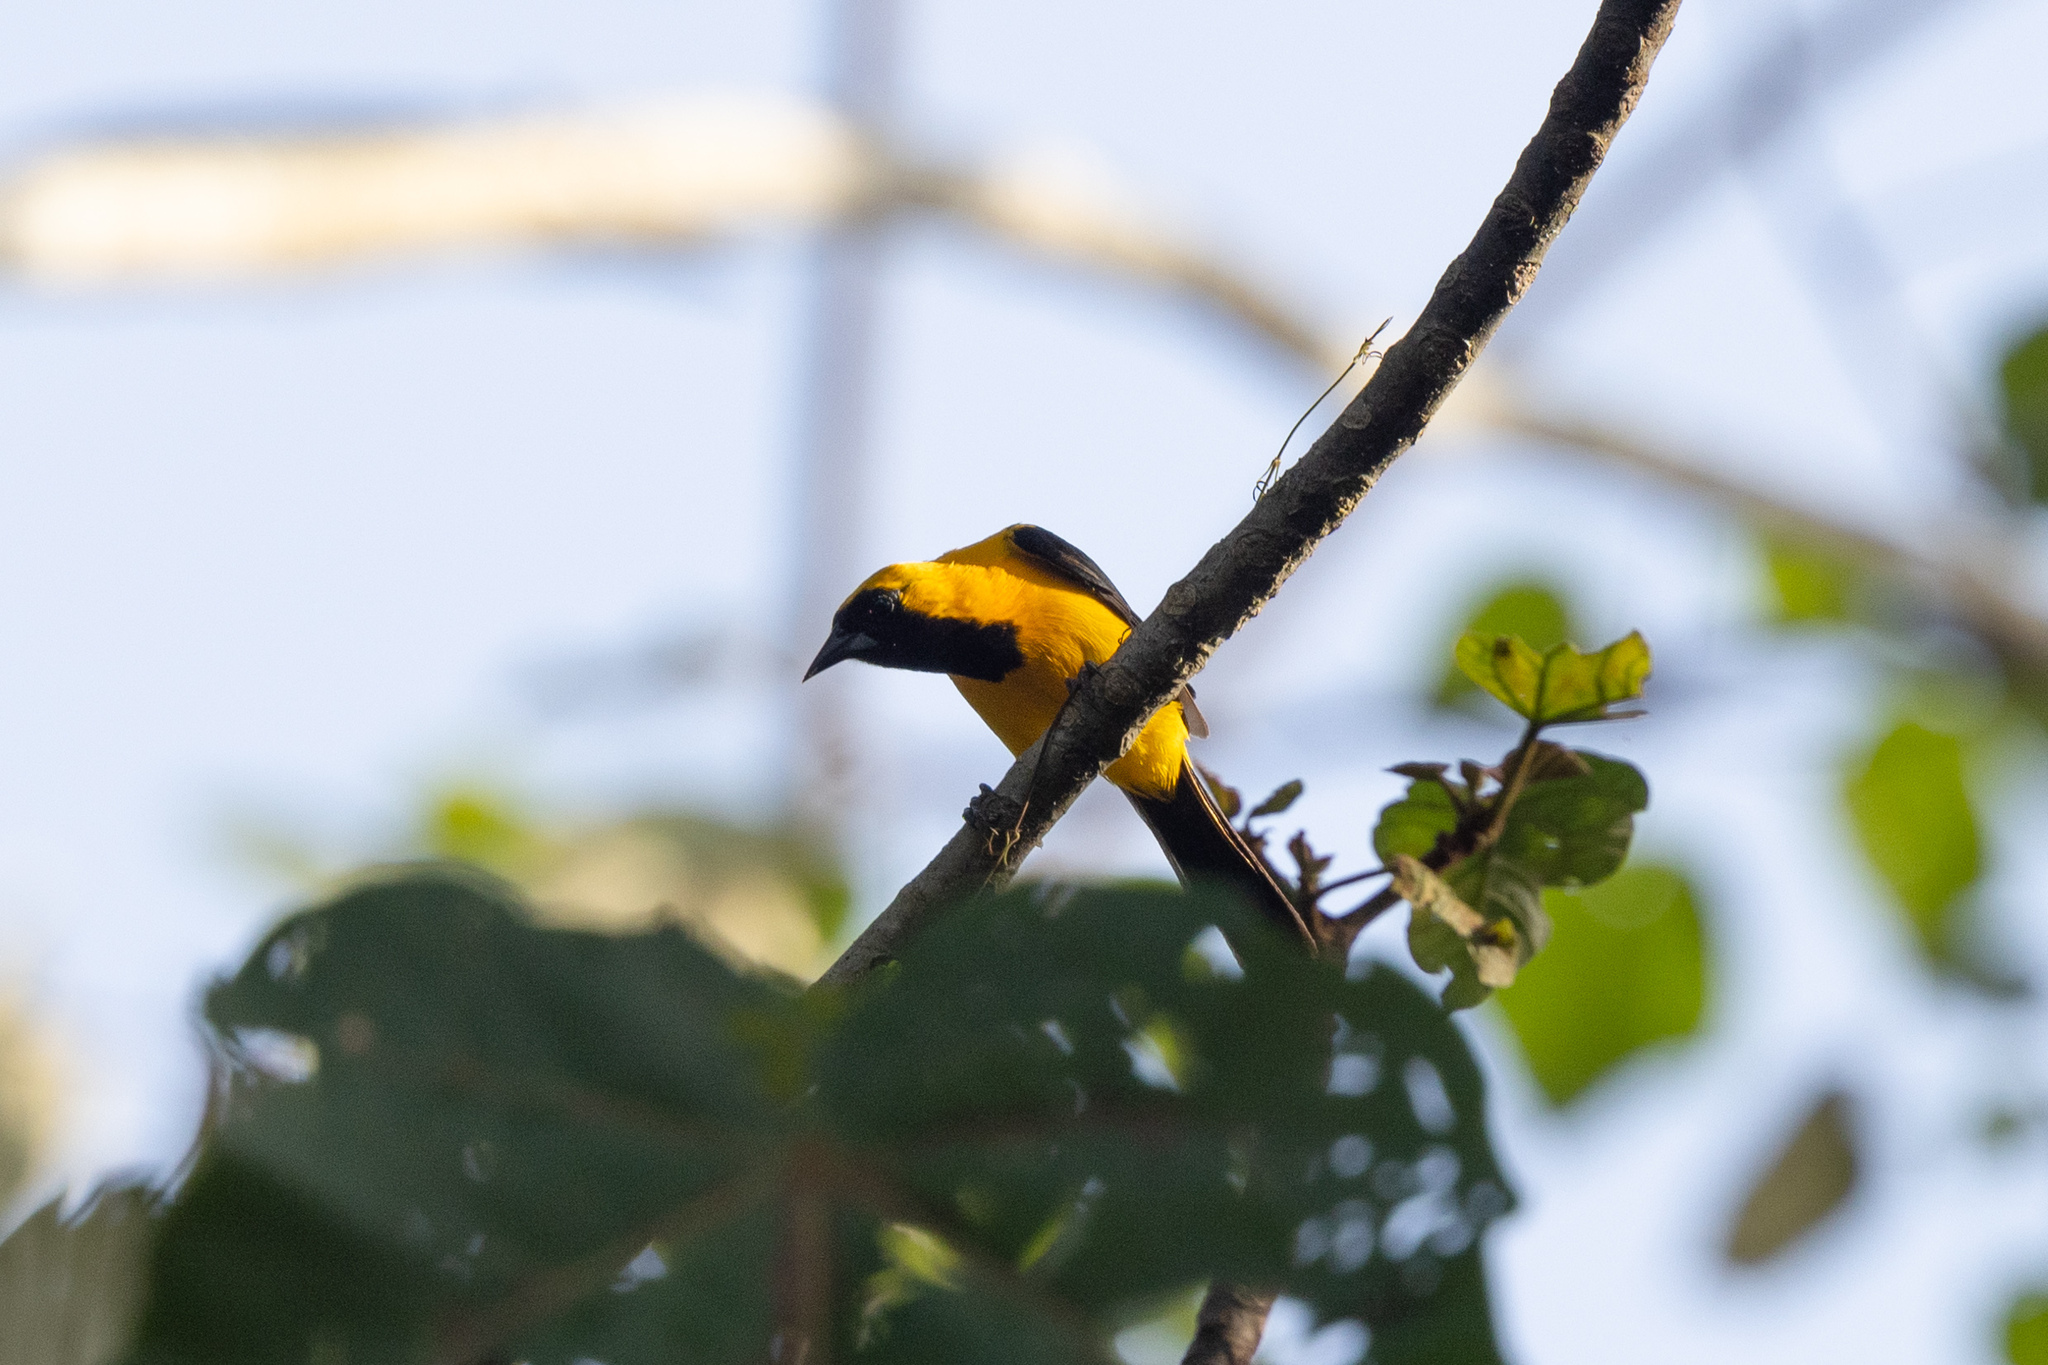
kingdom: Animalia
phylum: Chordata
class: Aves
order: Passeriformes
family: Icteridae
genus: Icterus
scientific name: Icterus chrysater
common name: Yellow-backed oriole
